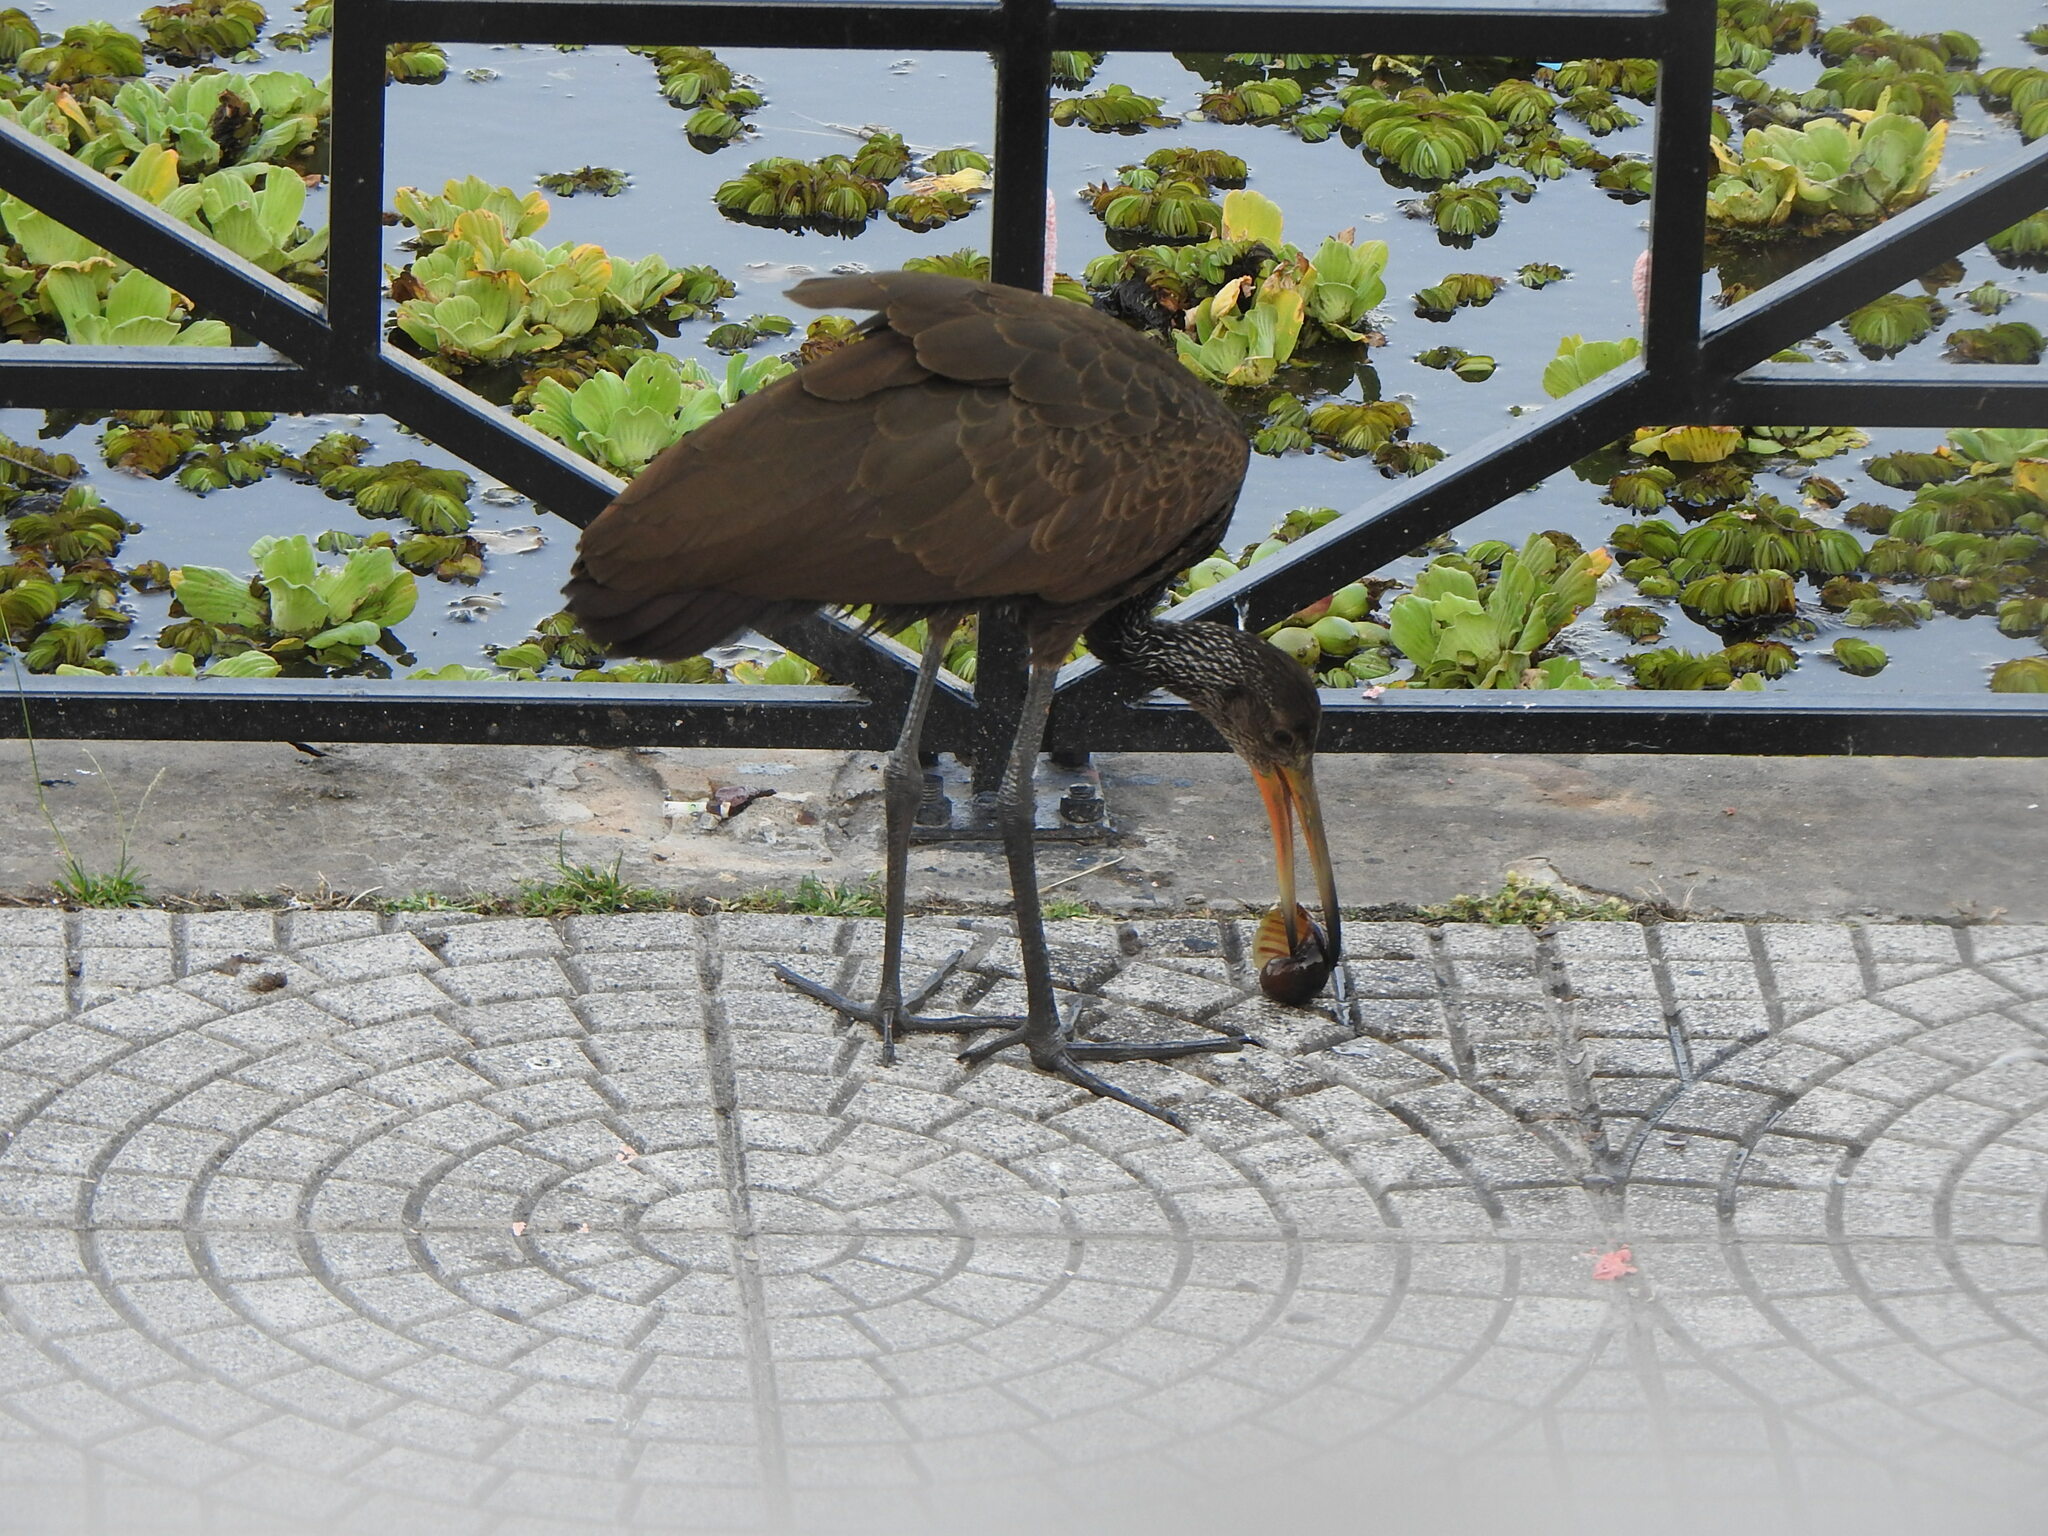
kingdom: Animalia
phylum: Chordata
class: Aves
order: Gruiformes
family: Aramidae
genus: Aramus
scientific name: Aramus guarauna
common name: Limpkin
